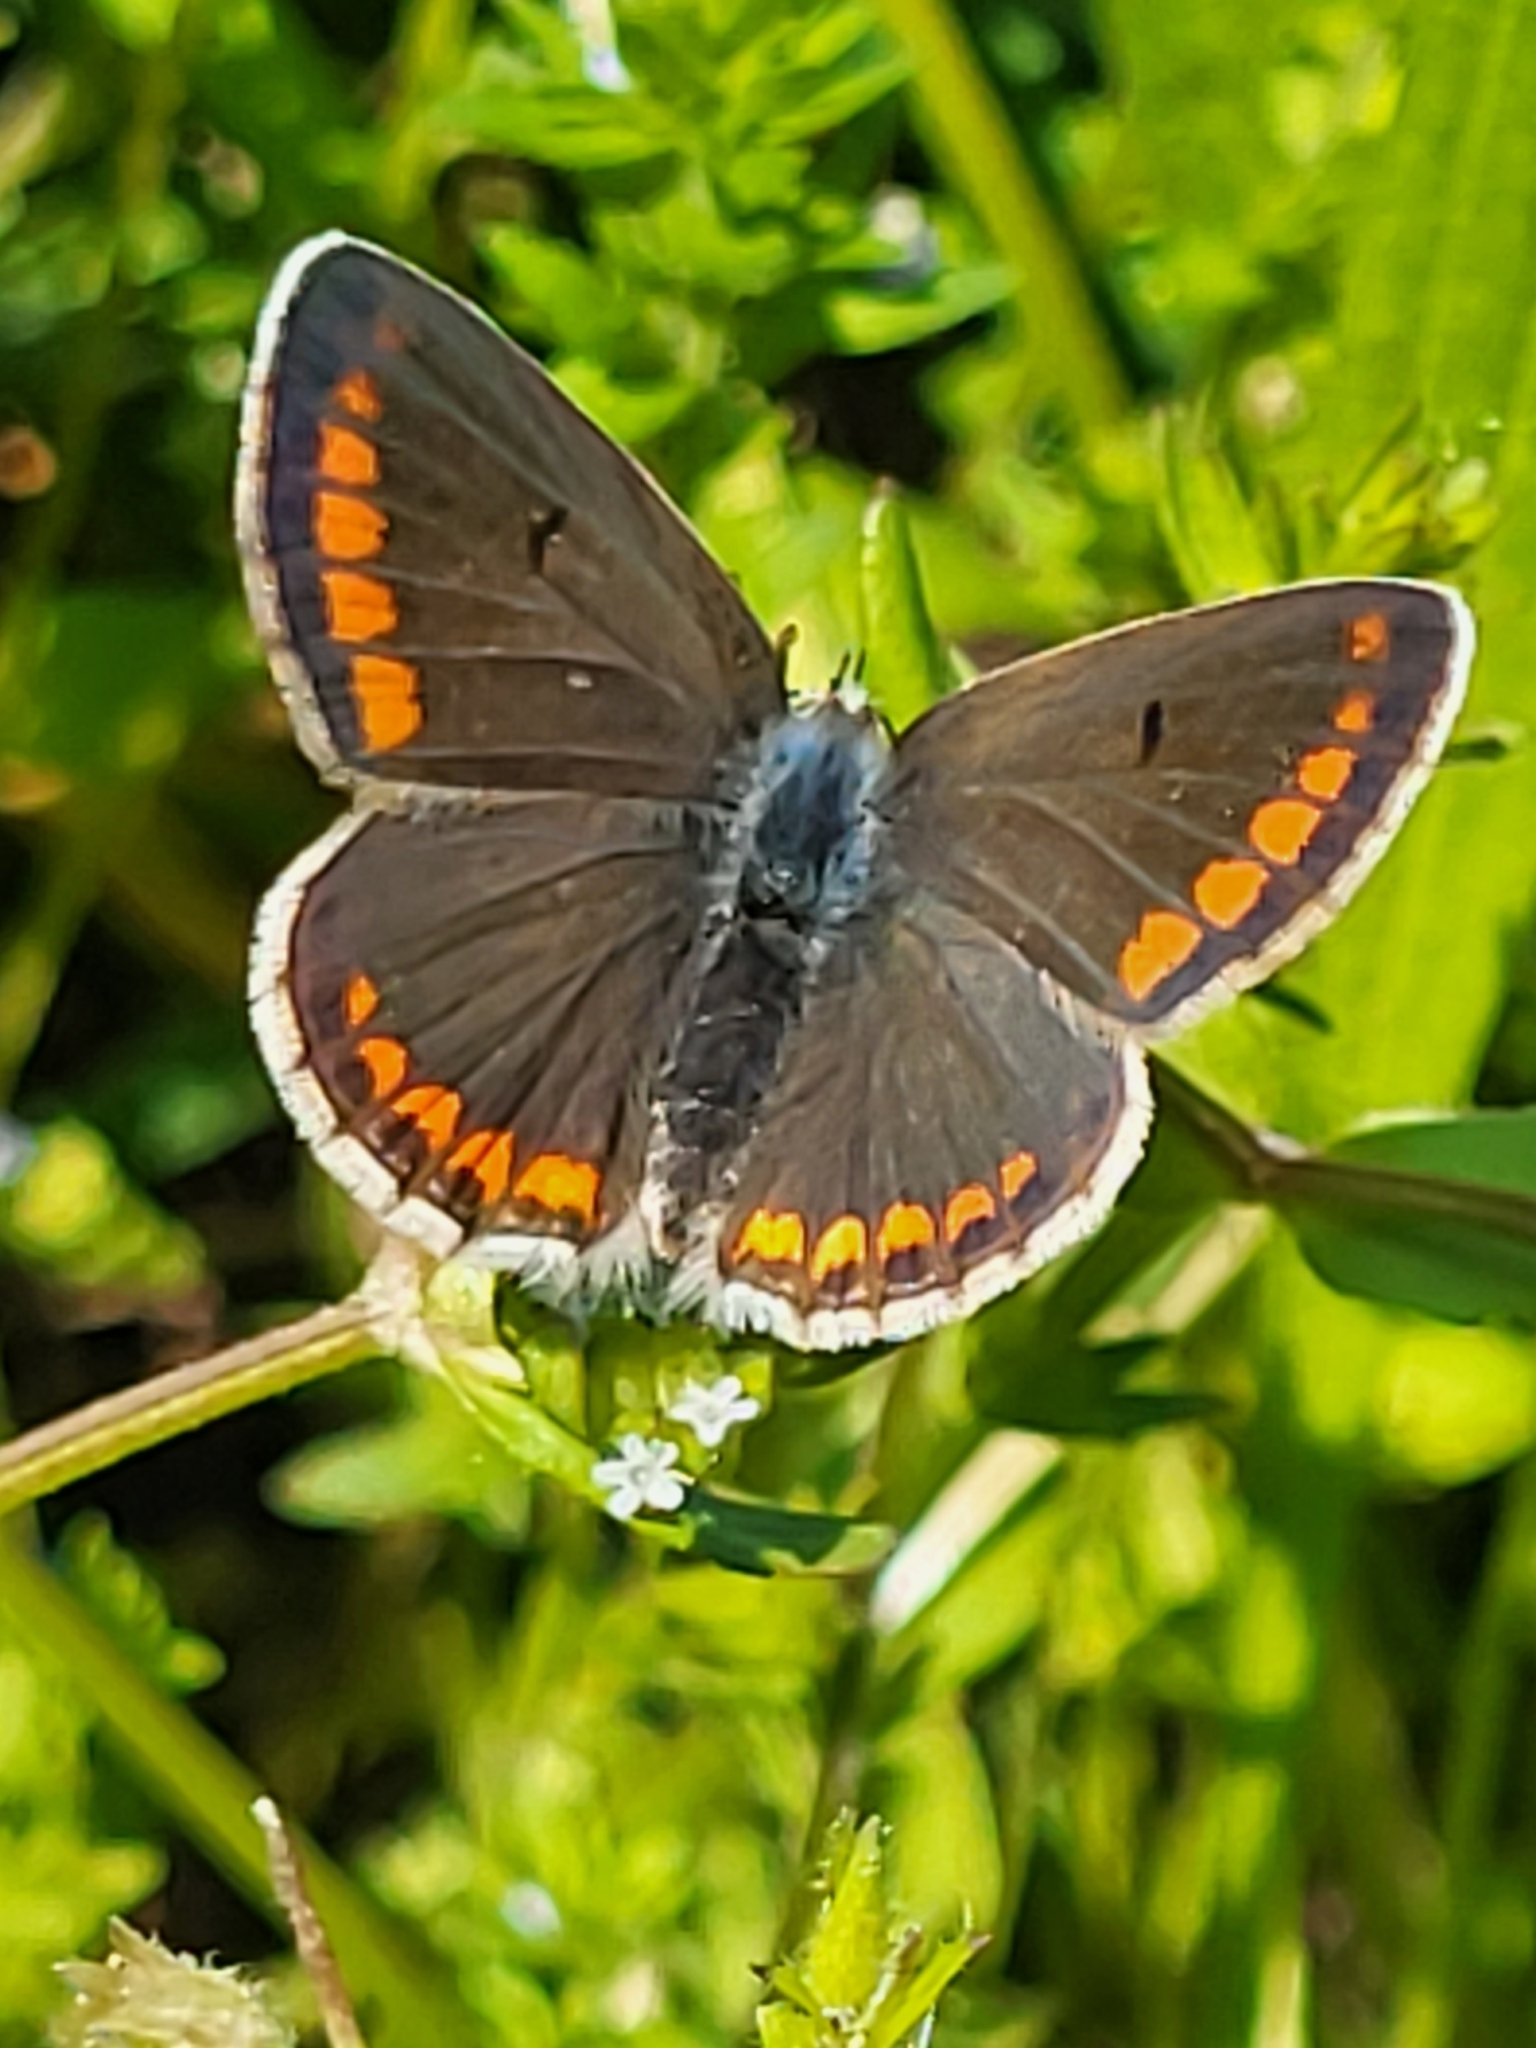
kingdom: Animalia
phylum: Arthropoda
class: Insecta
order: Lepidoptera
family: Lycaenidae
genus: Aricia
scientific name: Aricia agestis
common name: Brown argus
